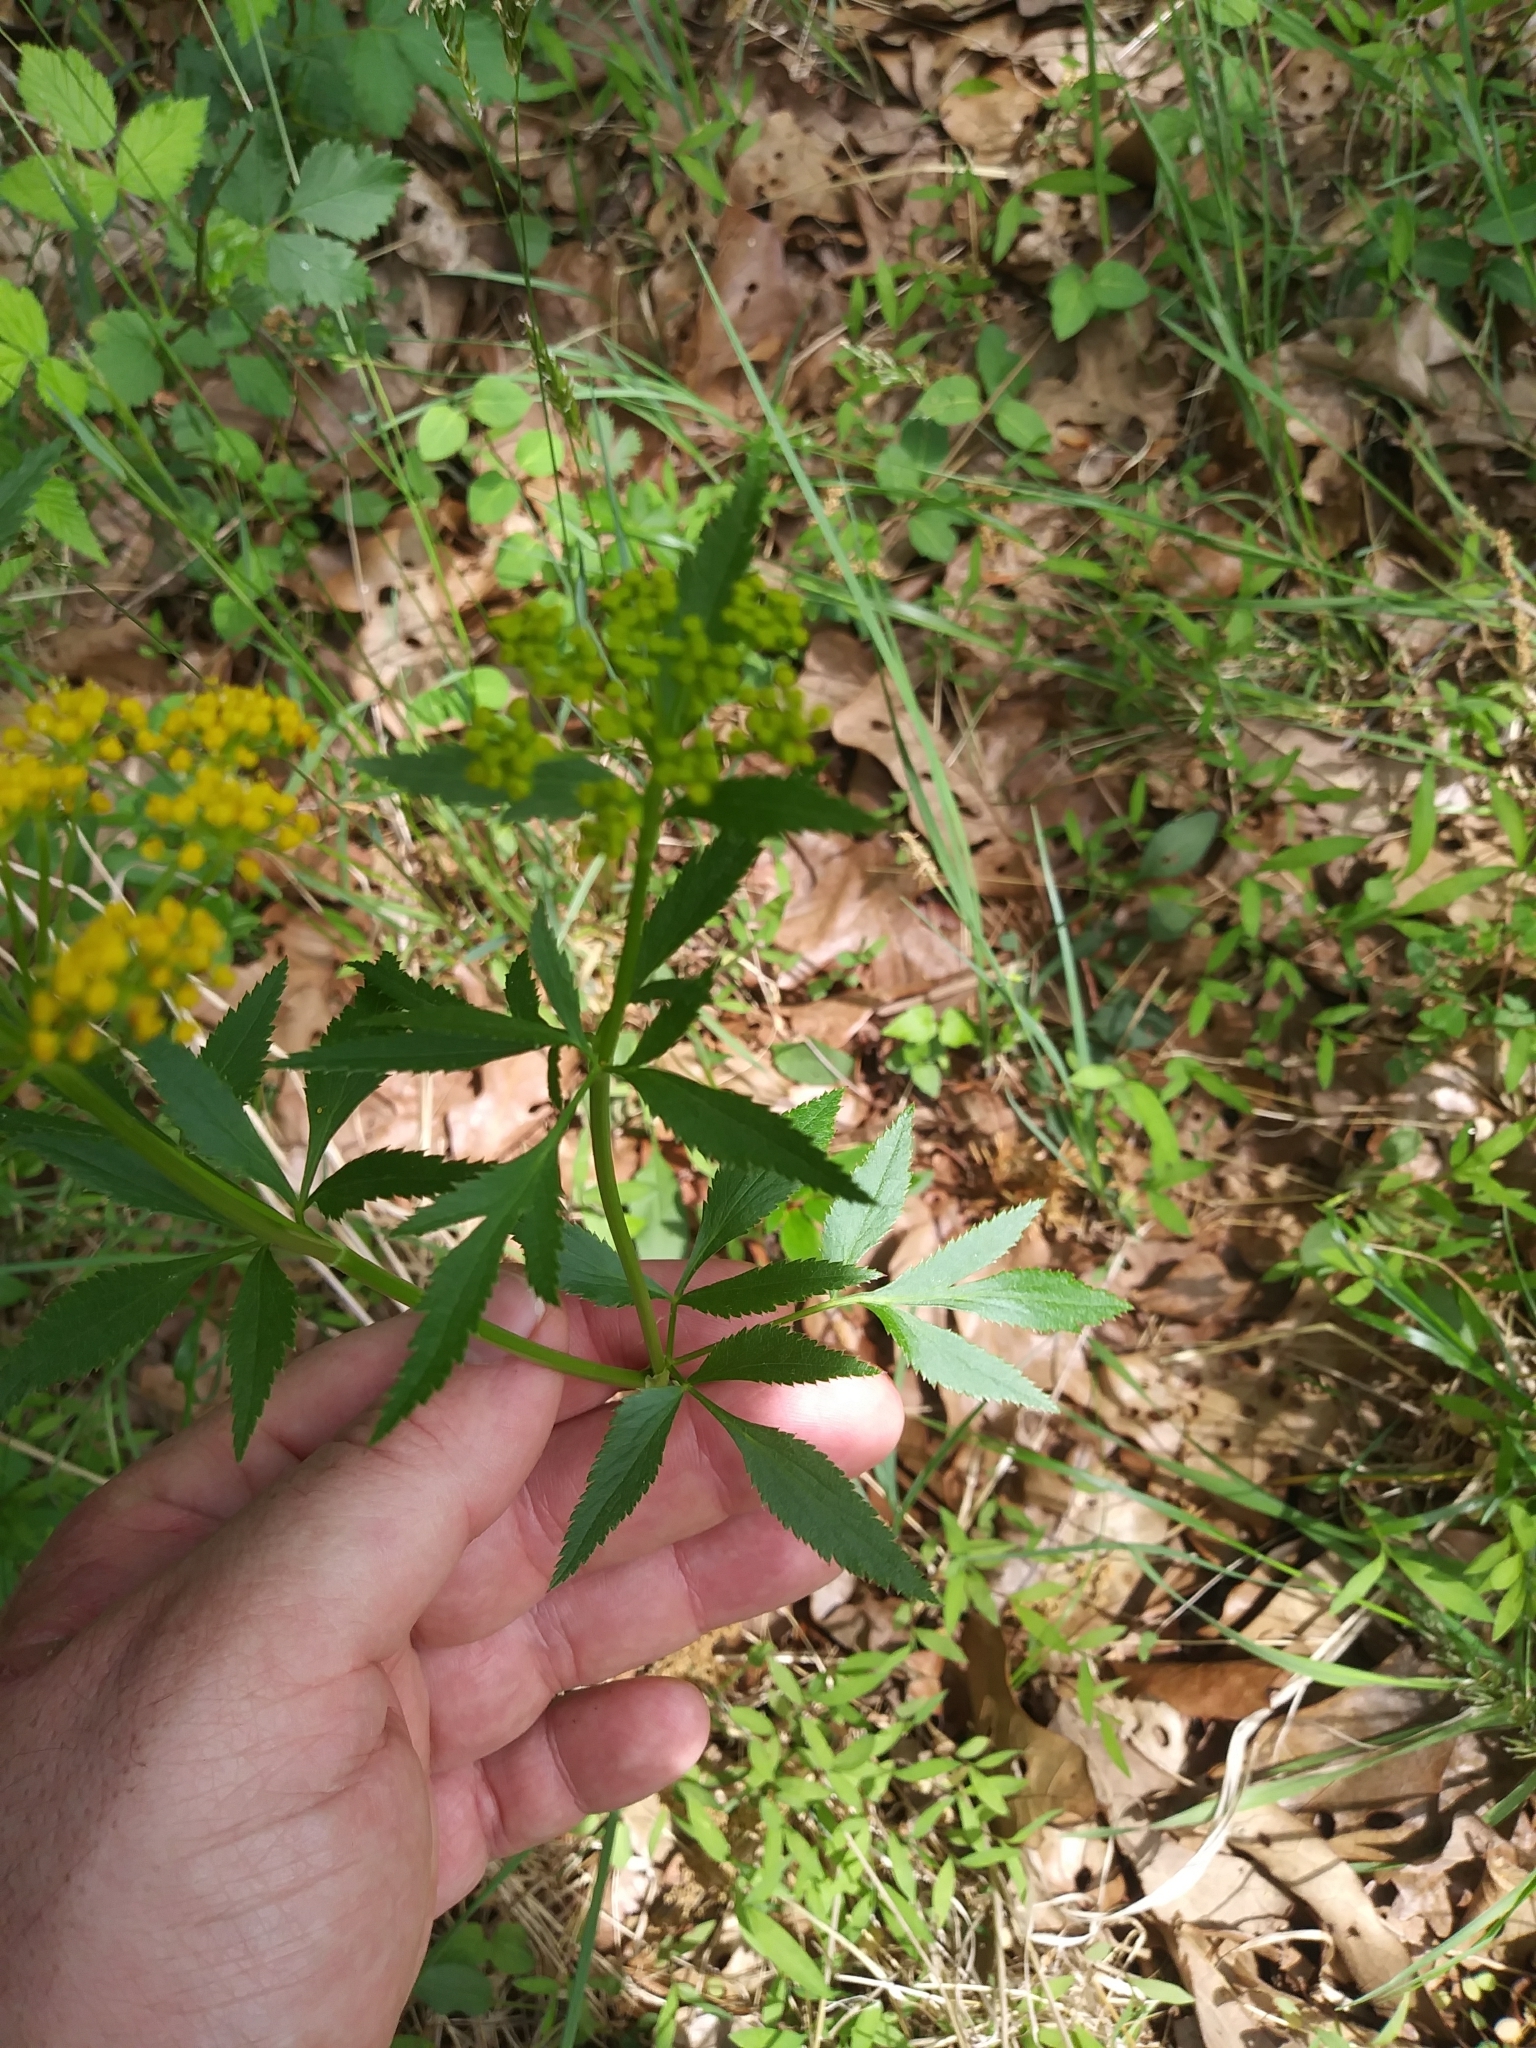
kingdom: Plantae
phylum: Tracheophyta
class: Magnoliopsida
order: Apiales
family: Apiaceae
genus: Zizia
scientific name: Zizia aurea
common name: Golden alexanders
